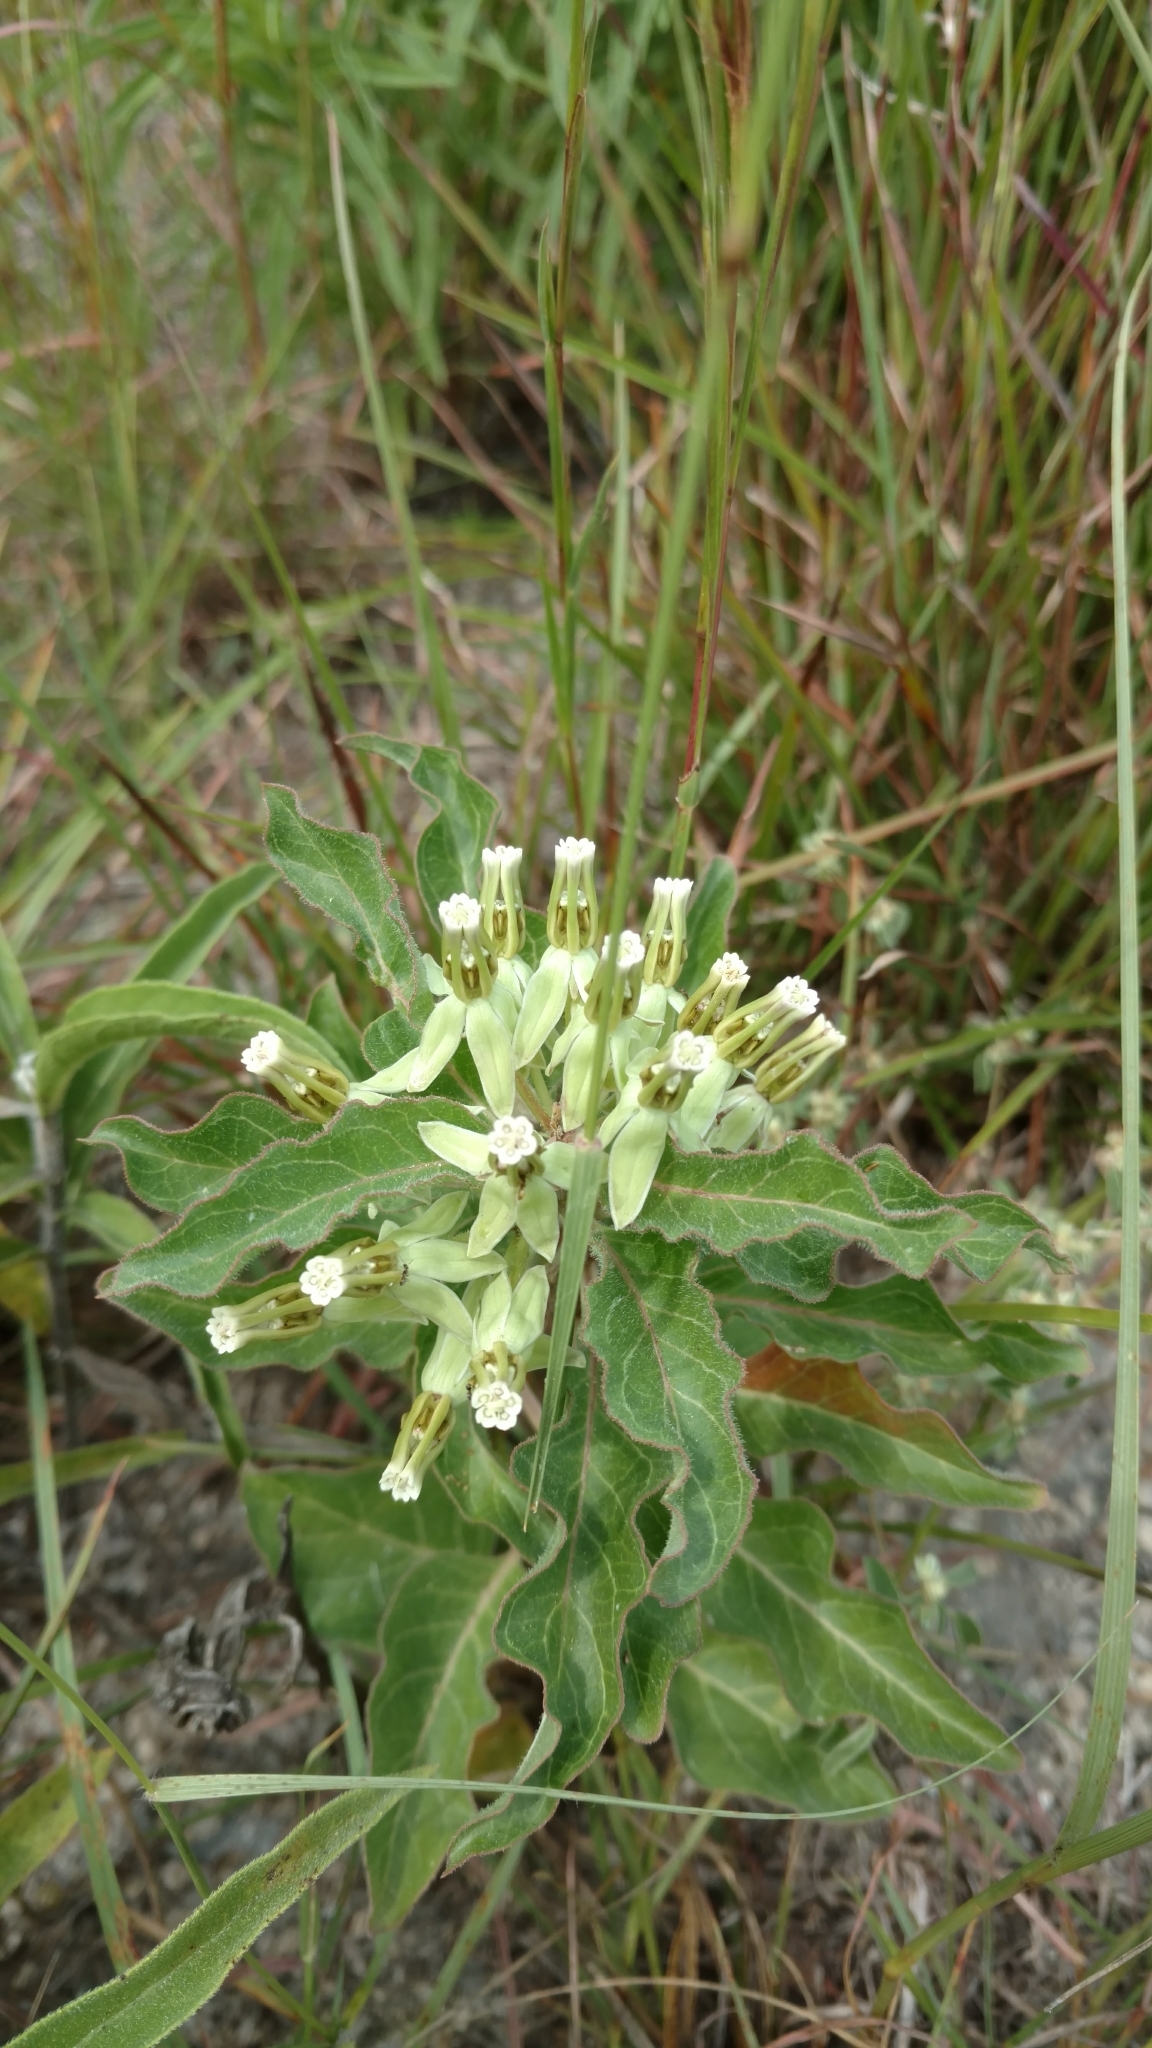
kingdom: Plantae
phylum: Tracheophyta
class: Magnoliopsida
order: Gentianales
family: Apocynaceae
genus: Asclepias
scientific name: Asclepias oenotheroides
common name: Zizotes milkweed
